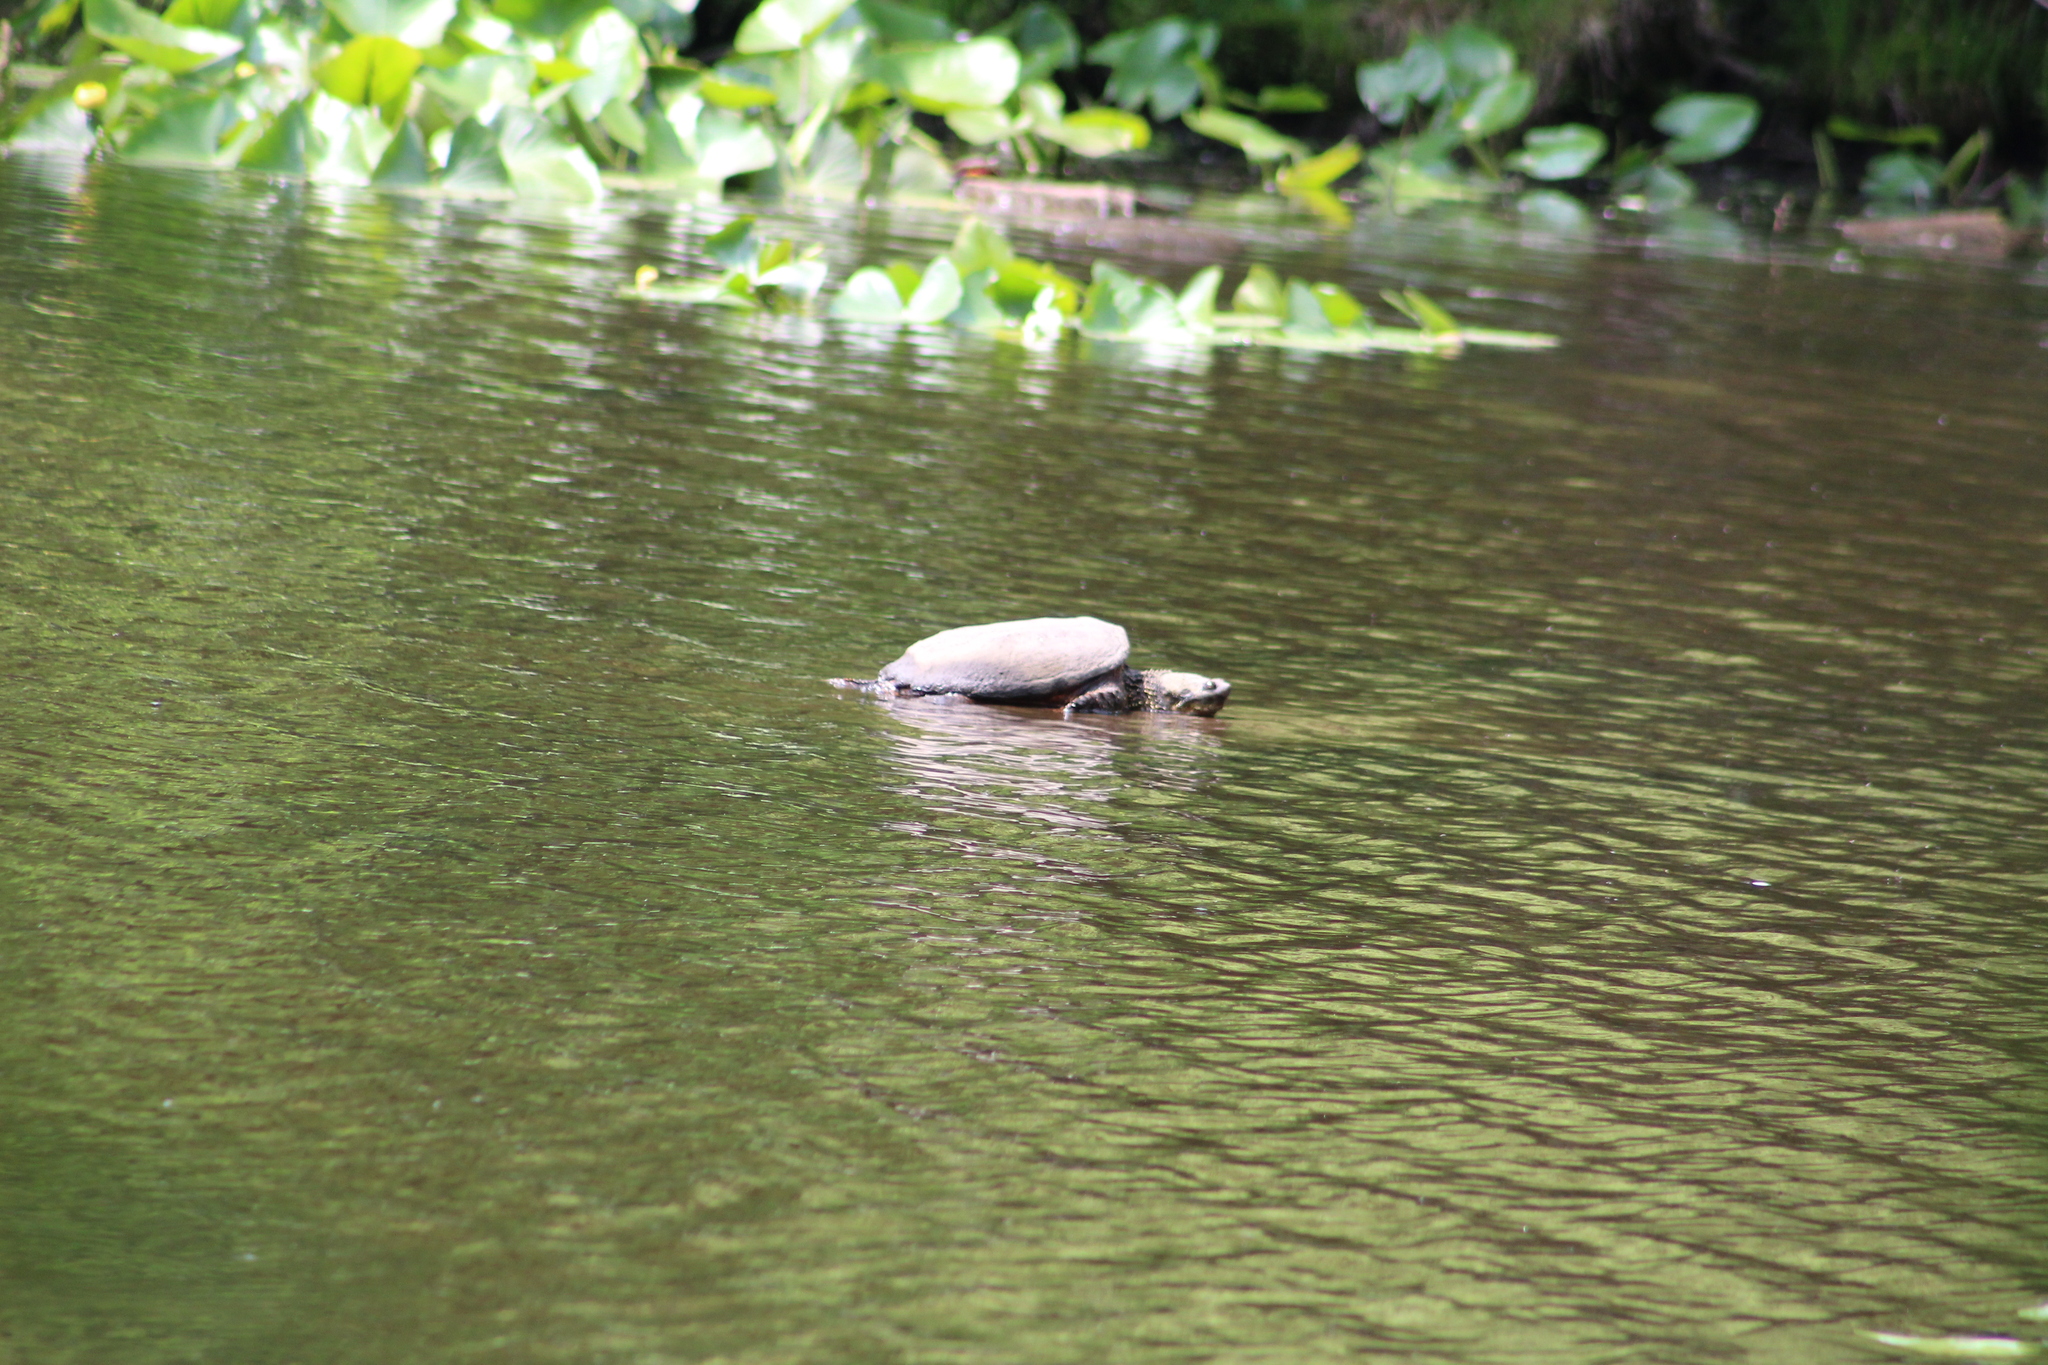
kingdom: Animalia
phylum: Chordata
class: Testudines
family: Chelydridae
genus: Chelydra
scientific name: Chelydra serpentina
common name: Common snapping turtle
